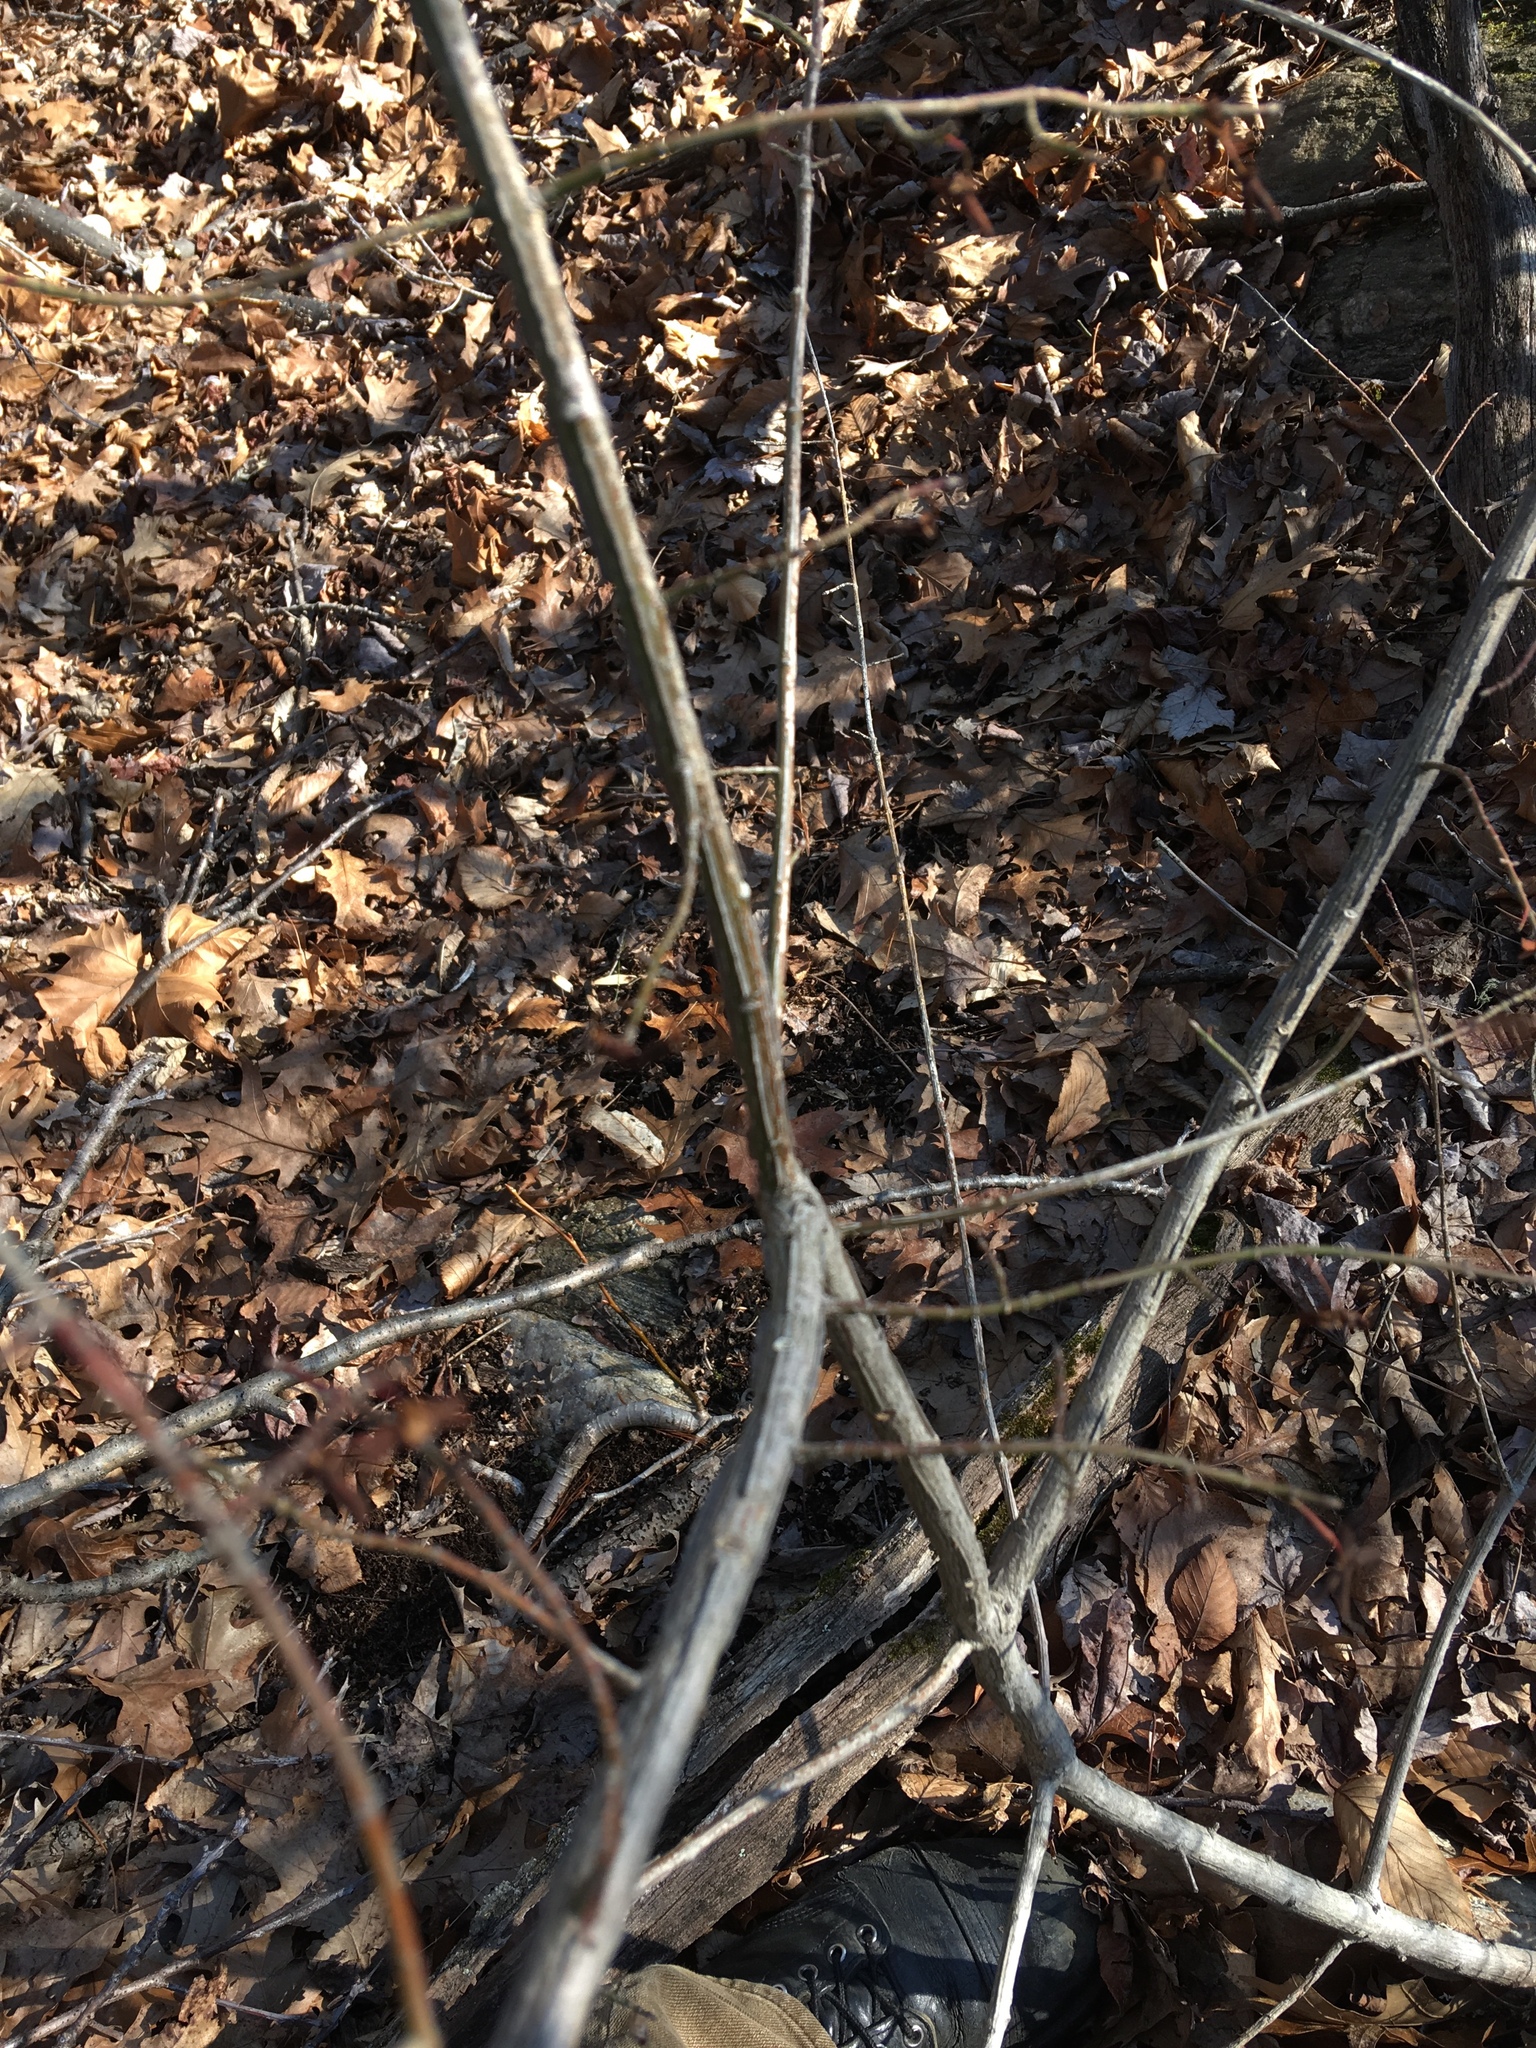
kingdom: Plantae
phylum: Tracheophyta
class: Magnoliopsida
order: Celastrales
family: Celastraceae
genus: Euonymus
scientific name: Euonymus alatus
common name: Winged euonymus
